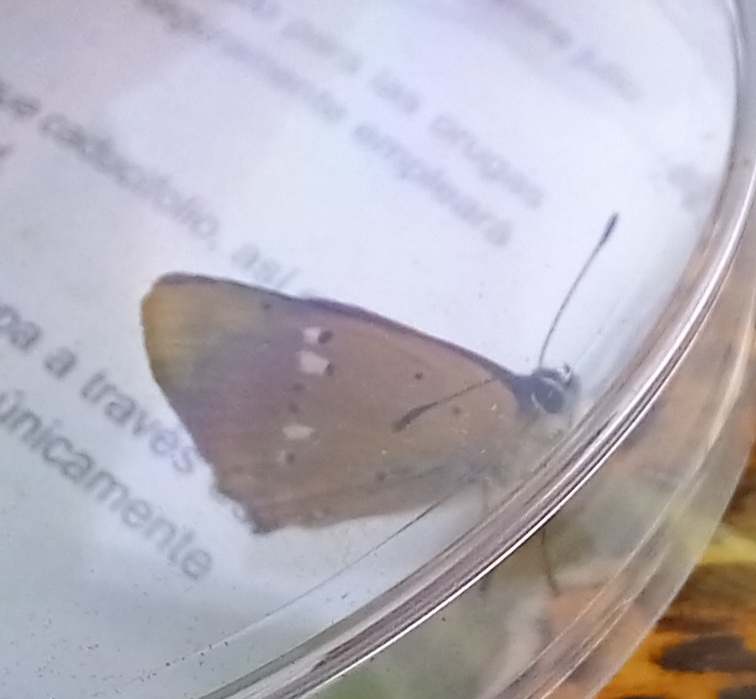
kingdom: Animalia
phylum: Arthropoda
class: Insecta
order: Lepidoptera
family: Lycaenidae
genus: Lycaena
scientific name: Lycaena virgaureae
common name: Scarce copper
